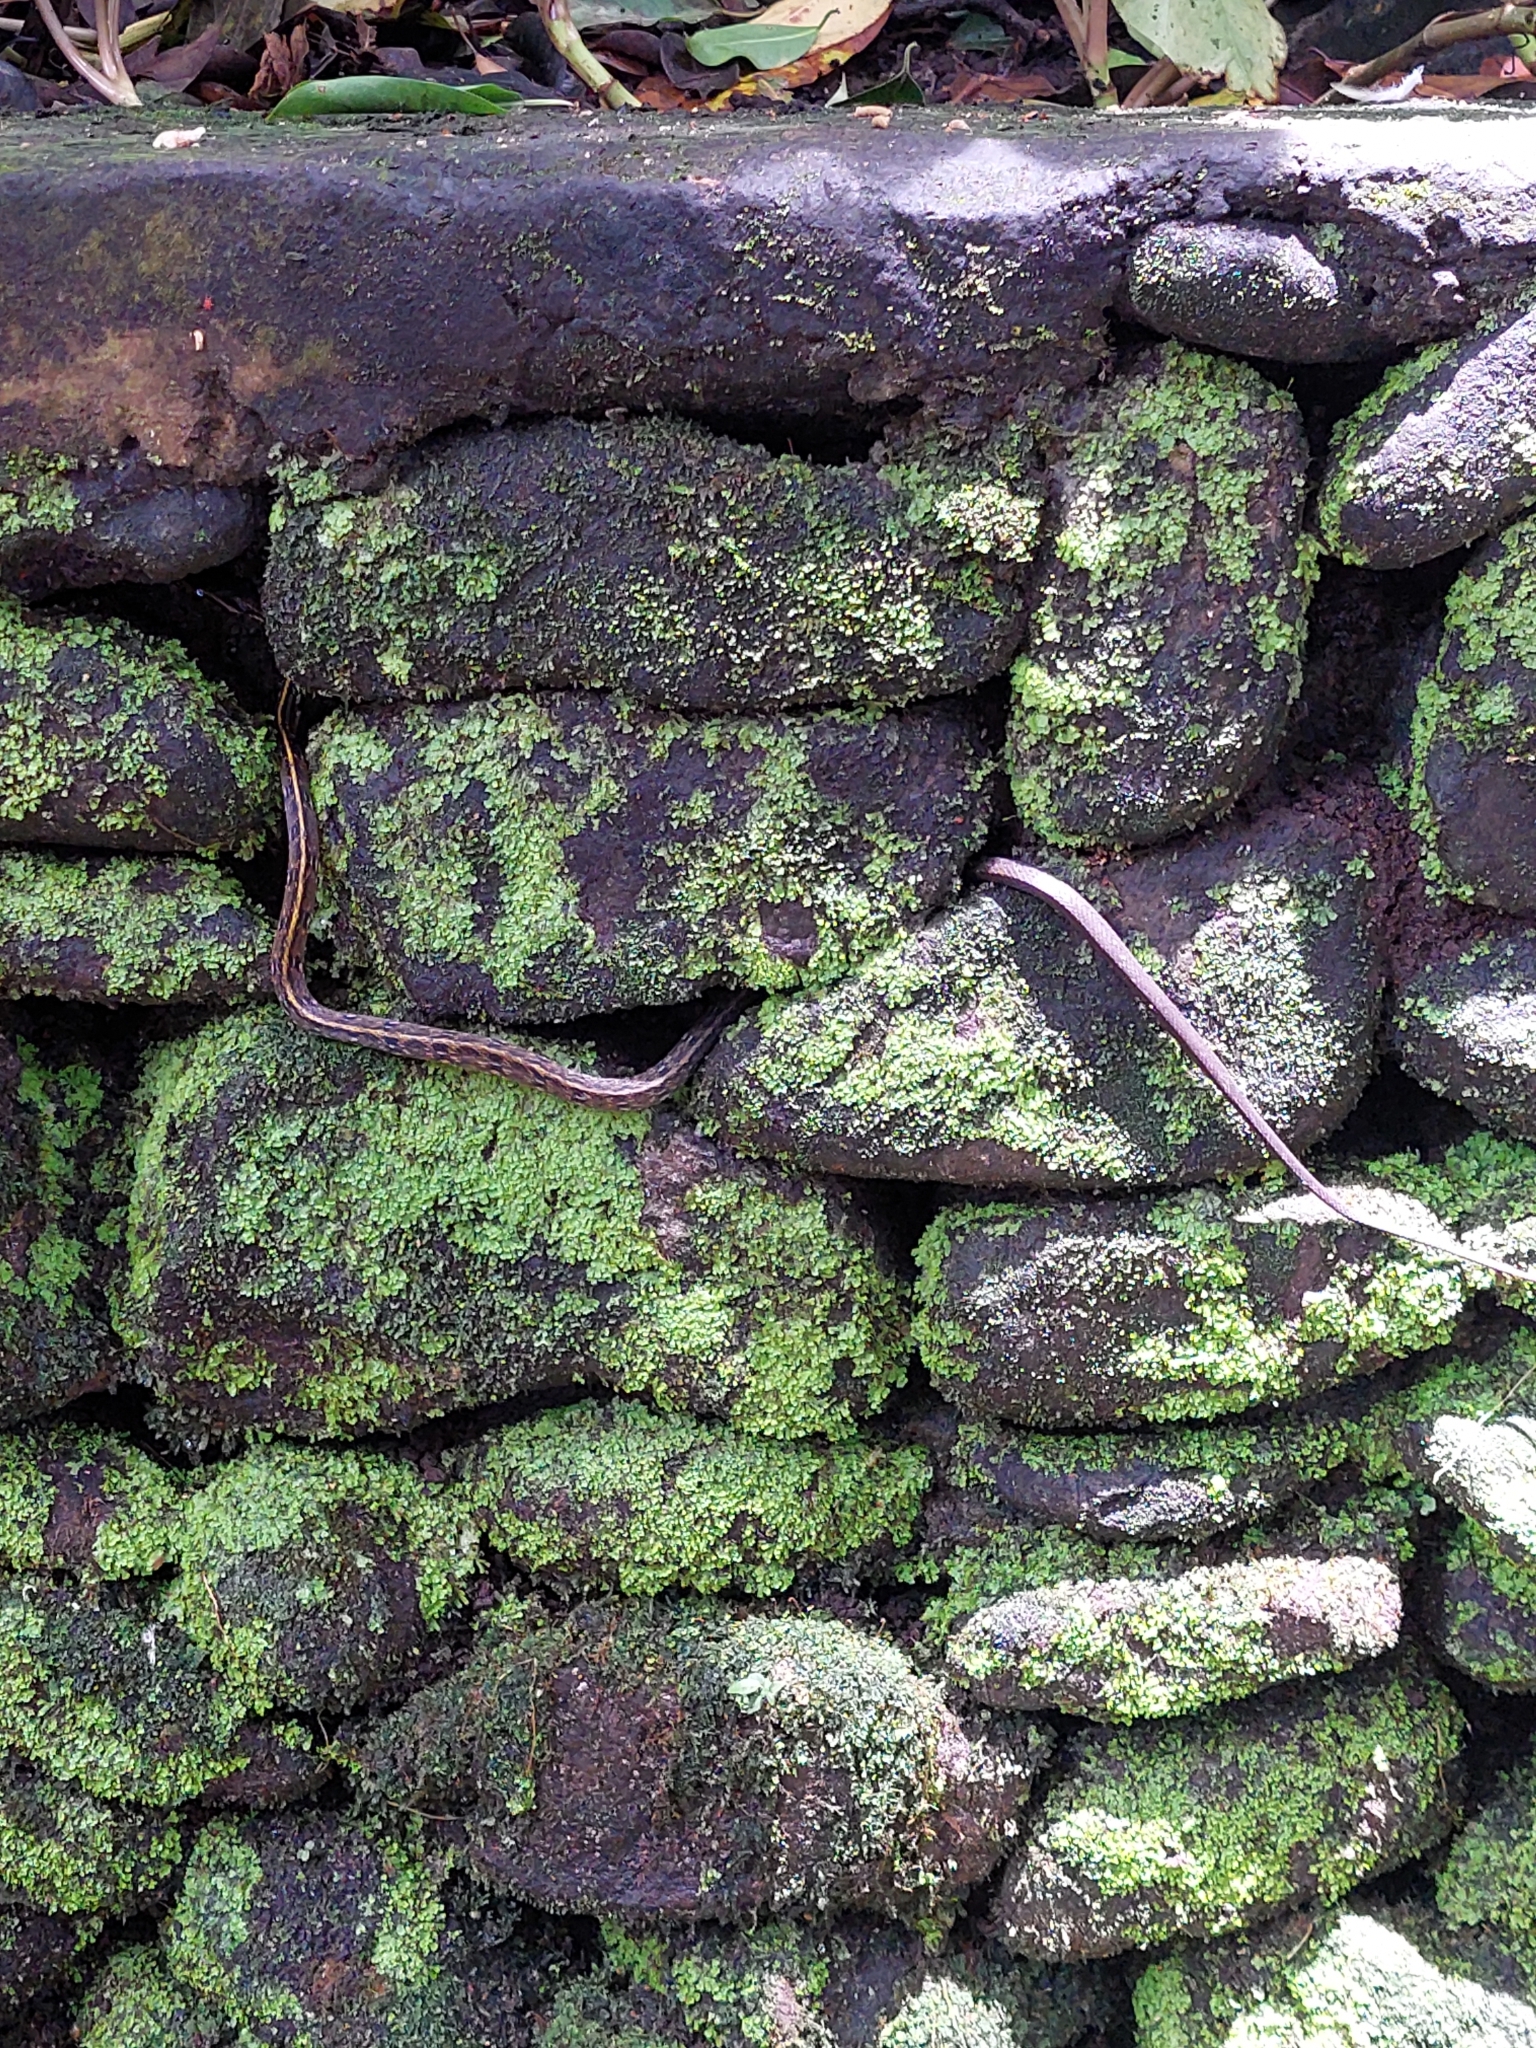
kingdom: Animalia
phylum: Chordata
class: Squamata
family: Colubridae
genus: Coelognathus
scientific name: Coelognathus flavolineatus
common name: Black copper rat snake
